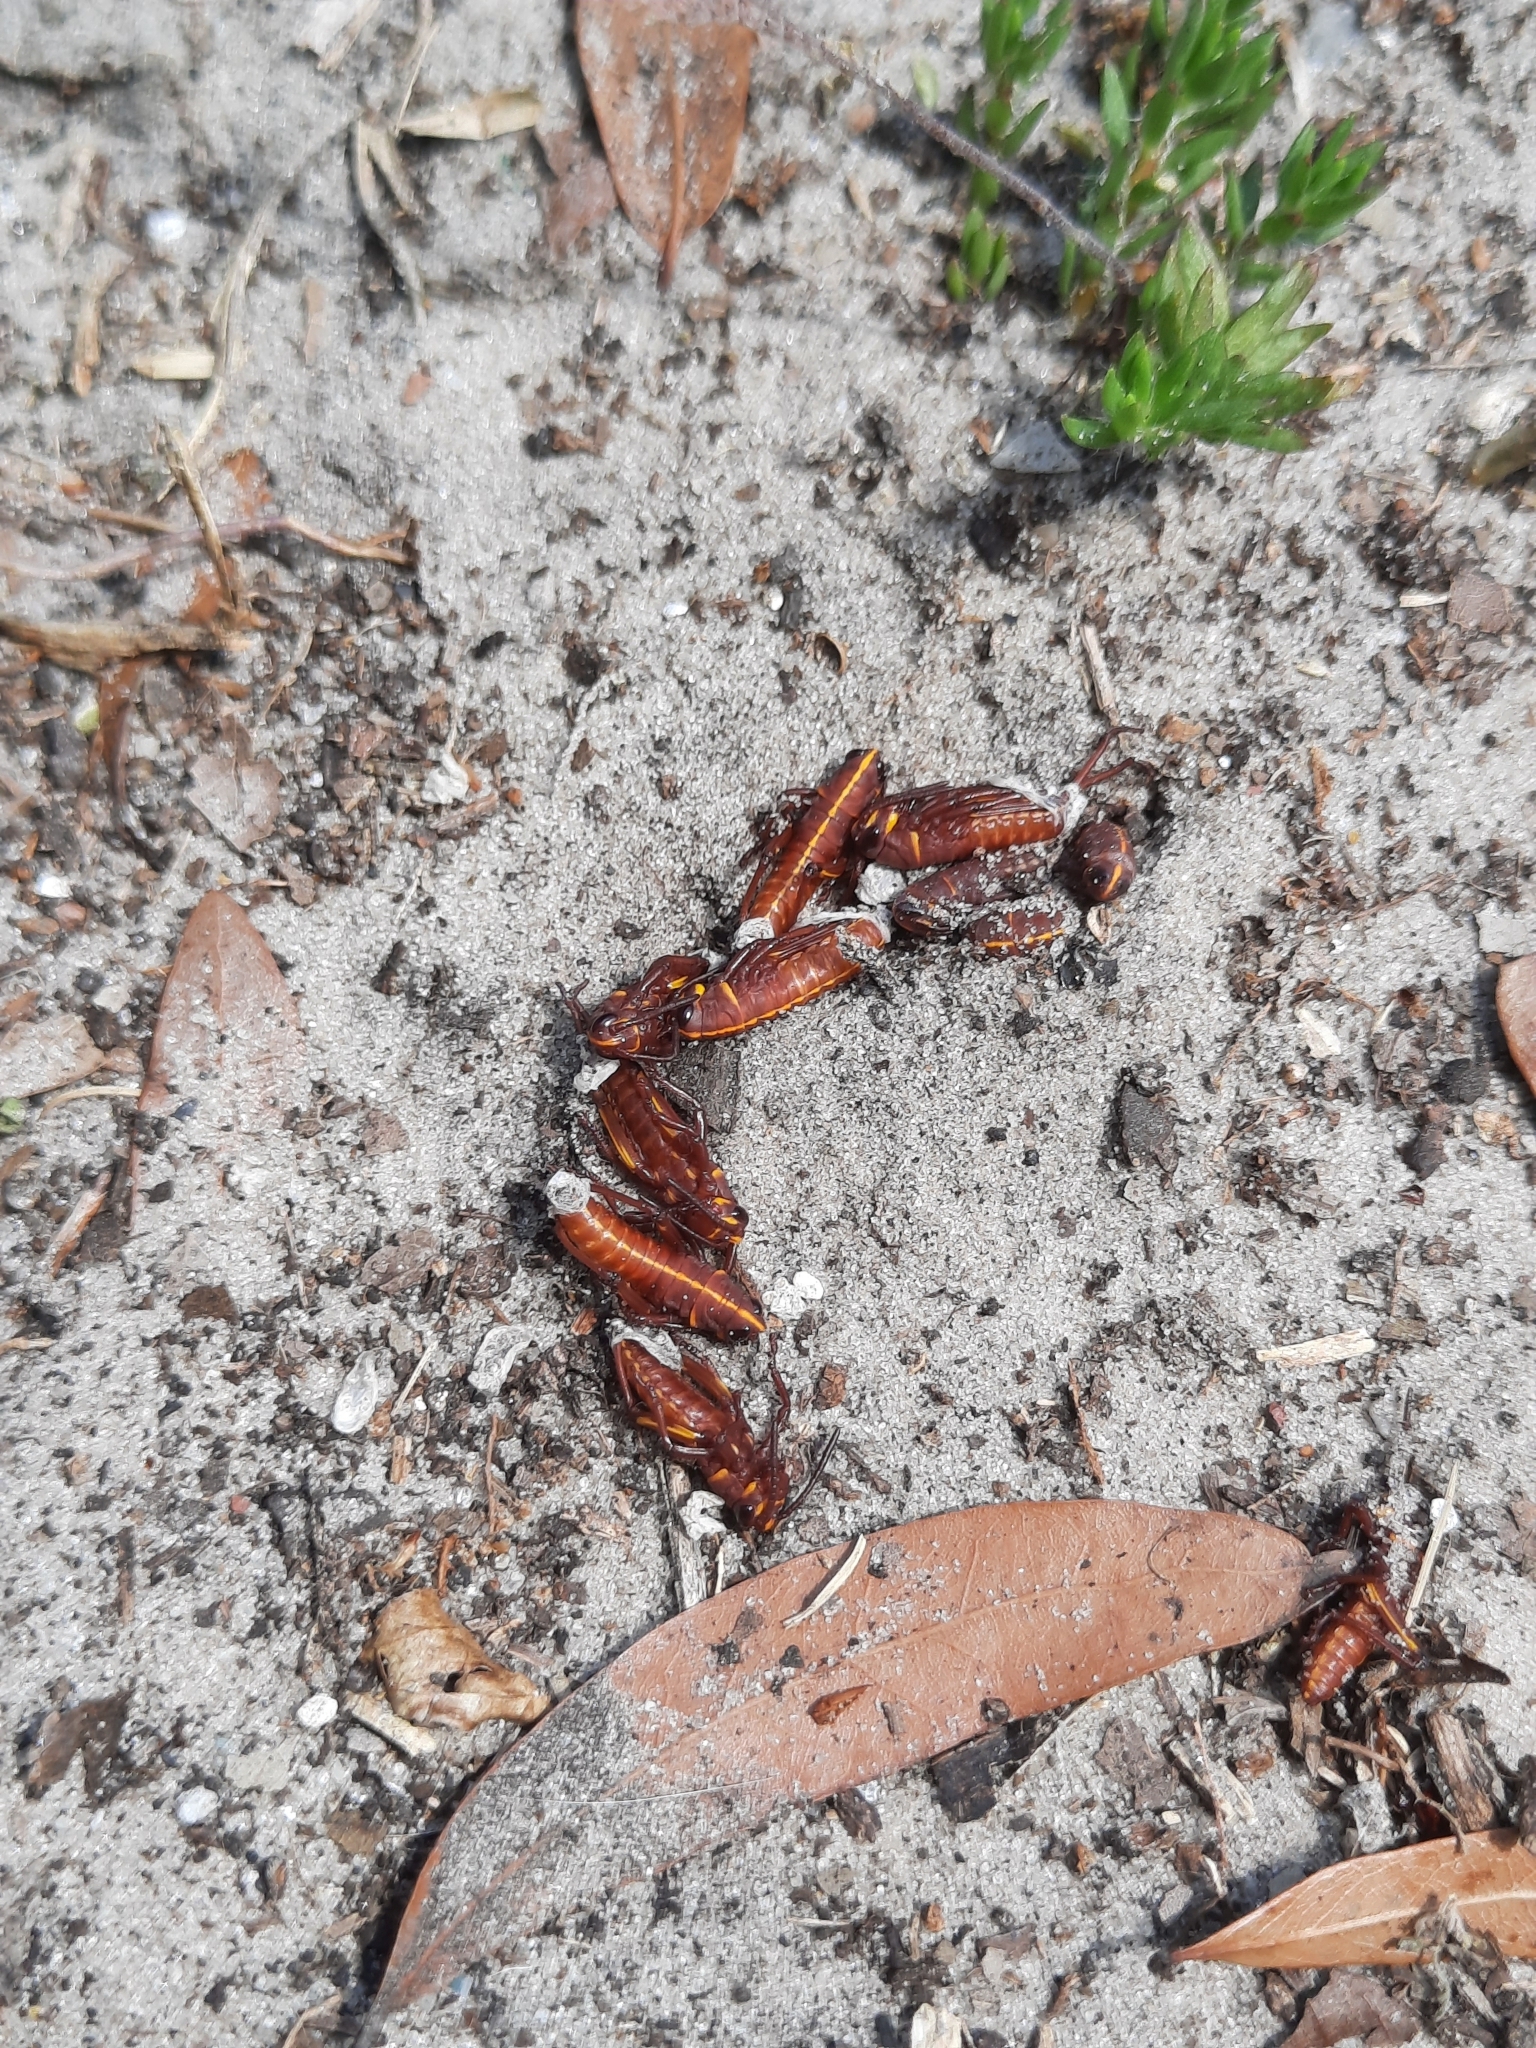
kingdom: Animalia
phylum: Arthropoda
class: Insecta
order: Orthoptera
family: Romaleidae
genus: Romalea
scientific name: Romalea microptera
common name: Eastern lubber grasshopper
